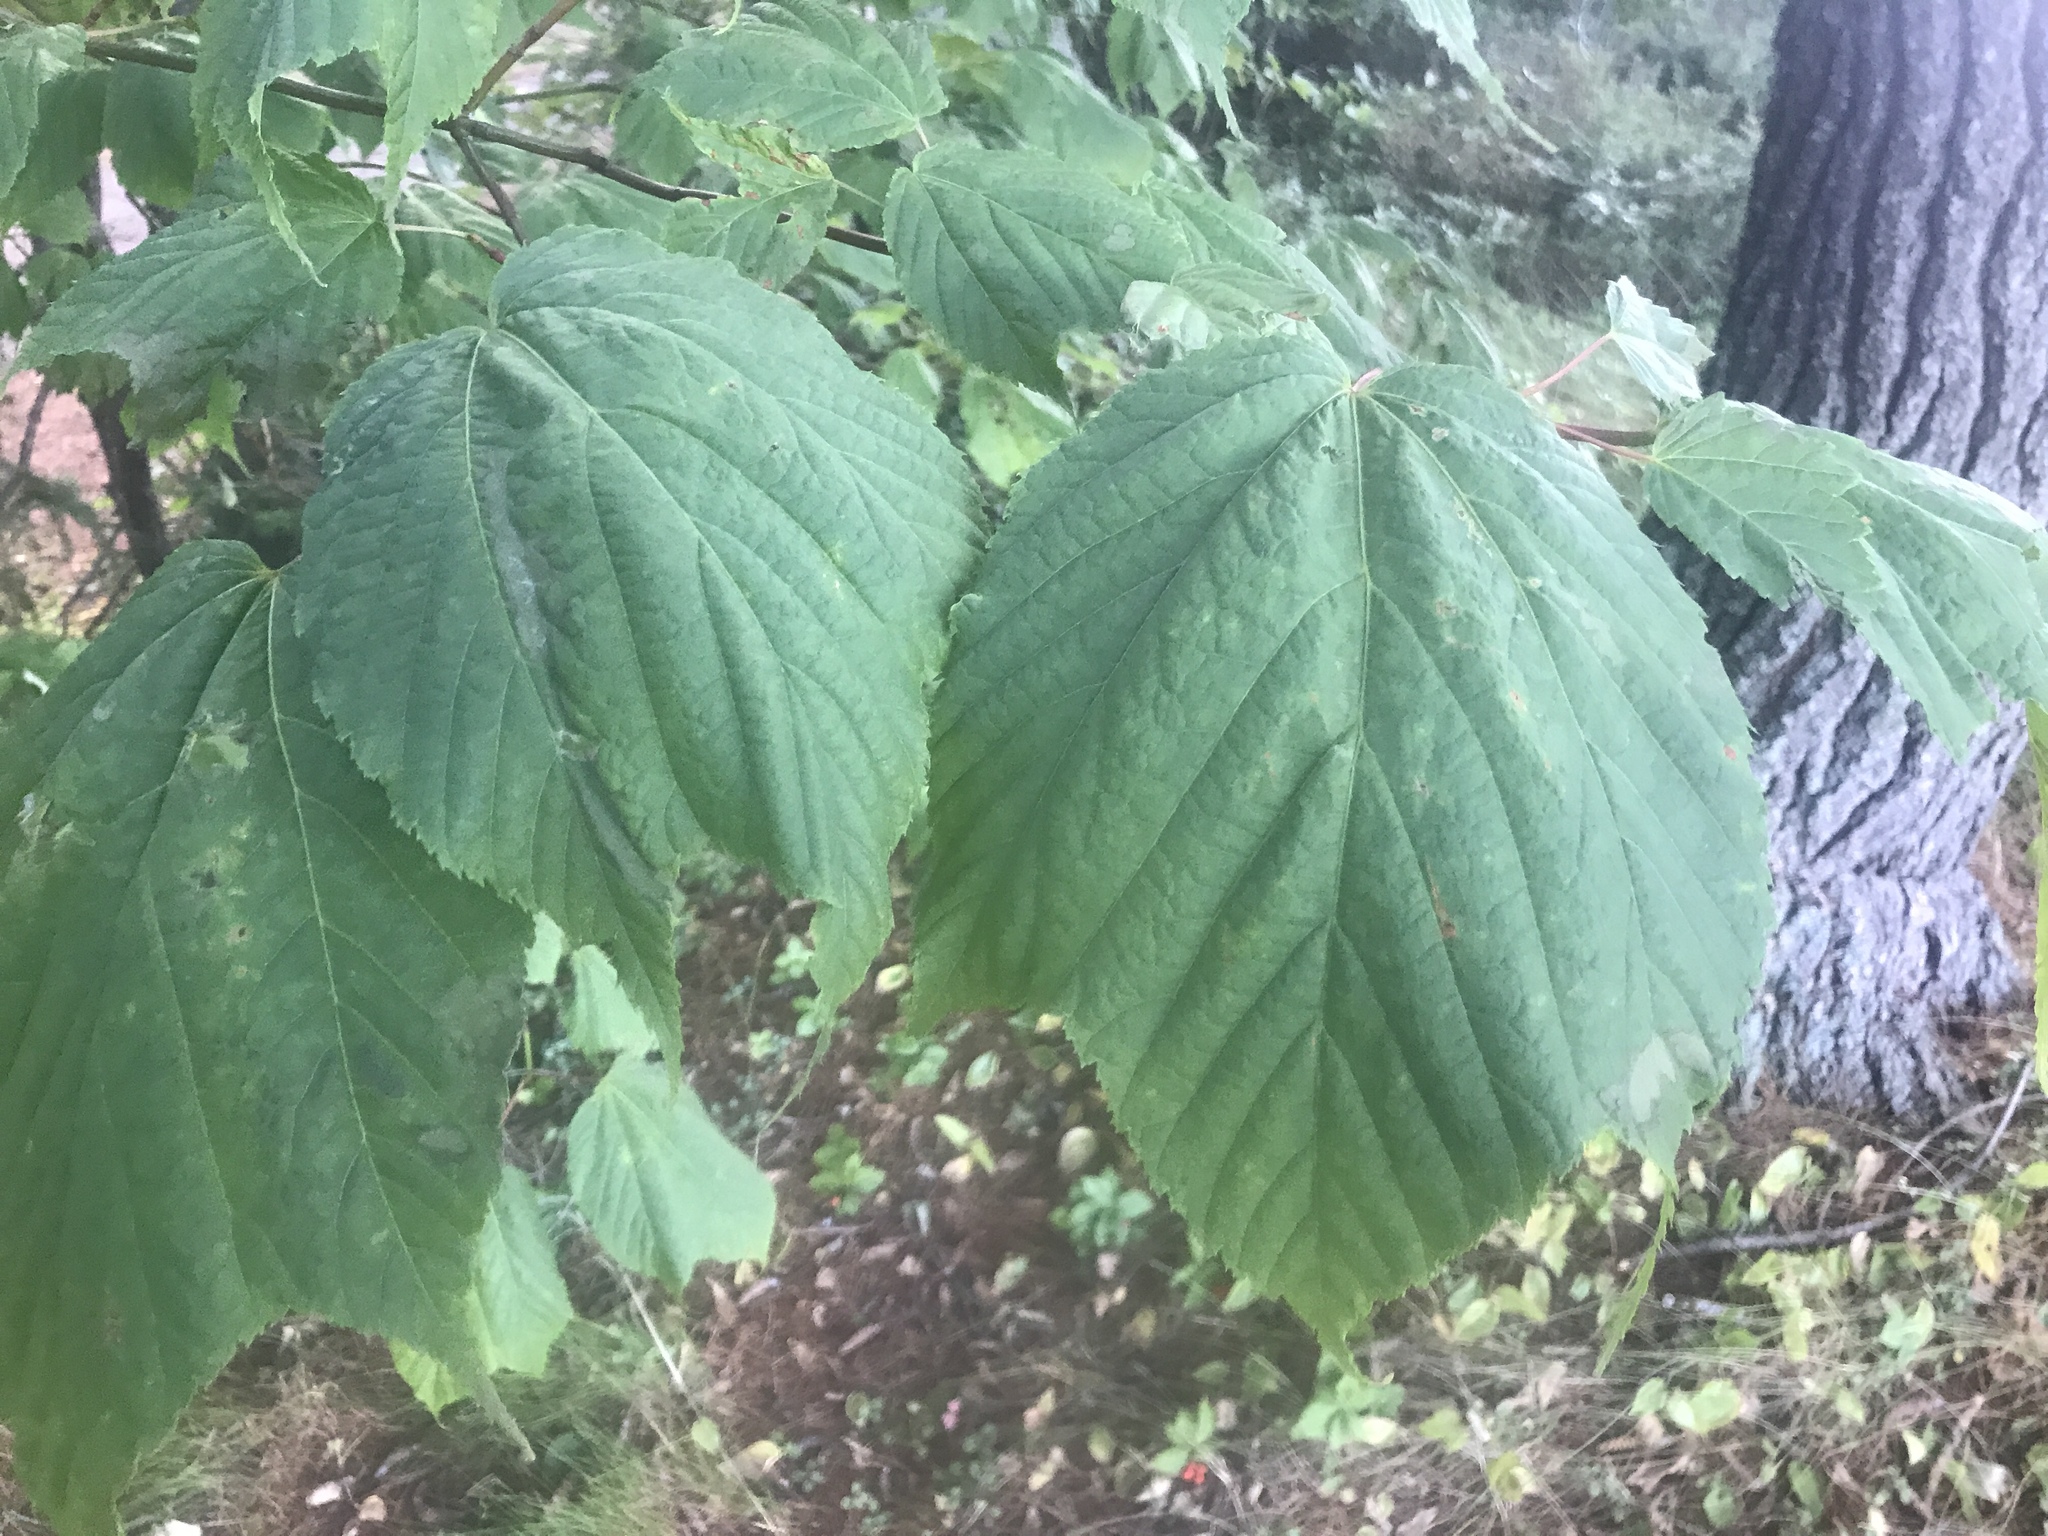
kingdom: Plantae
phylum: Tracheophyta
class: Magnoliopsida
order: Sapindales
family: Sapindaceae
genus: Acer
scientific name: Acer pensylvanicum
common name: Moosewood
